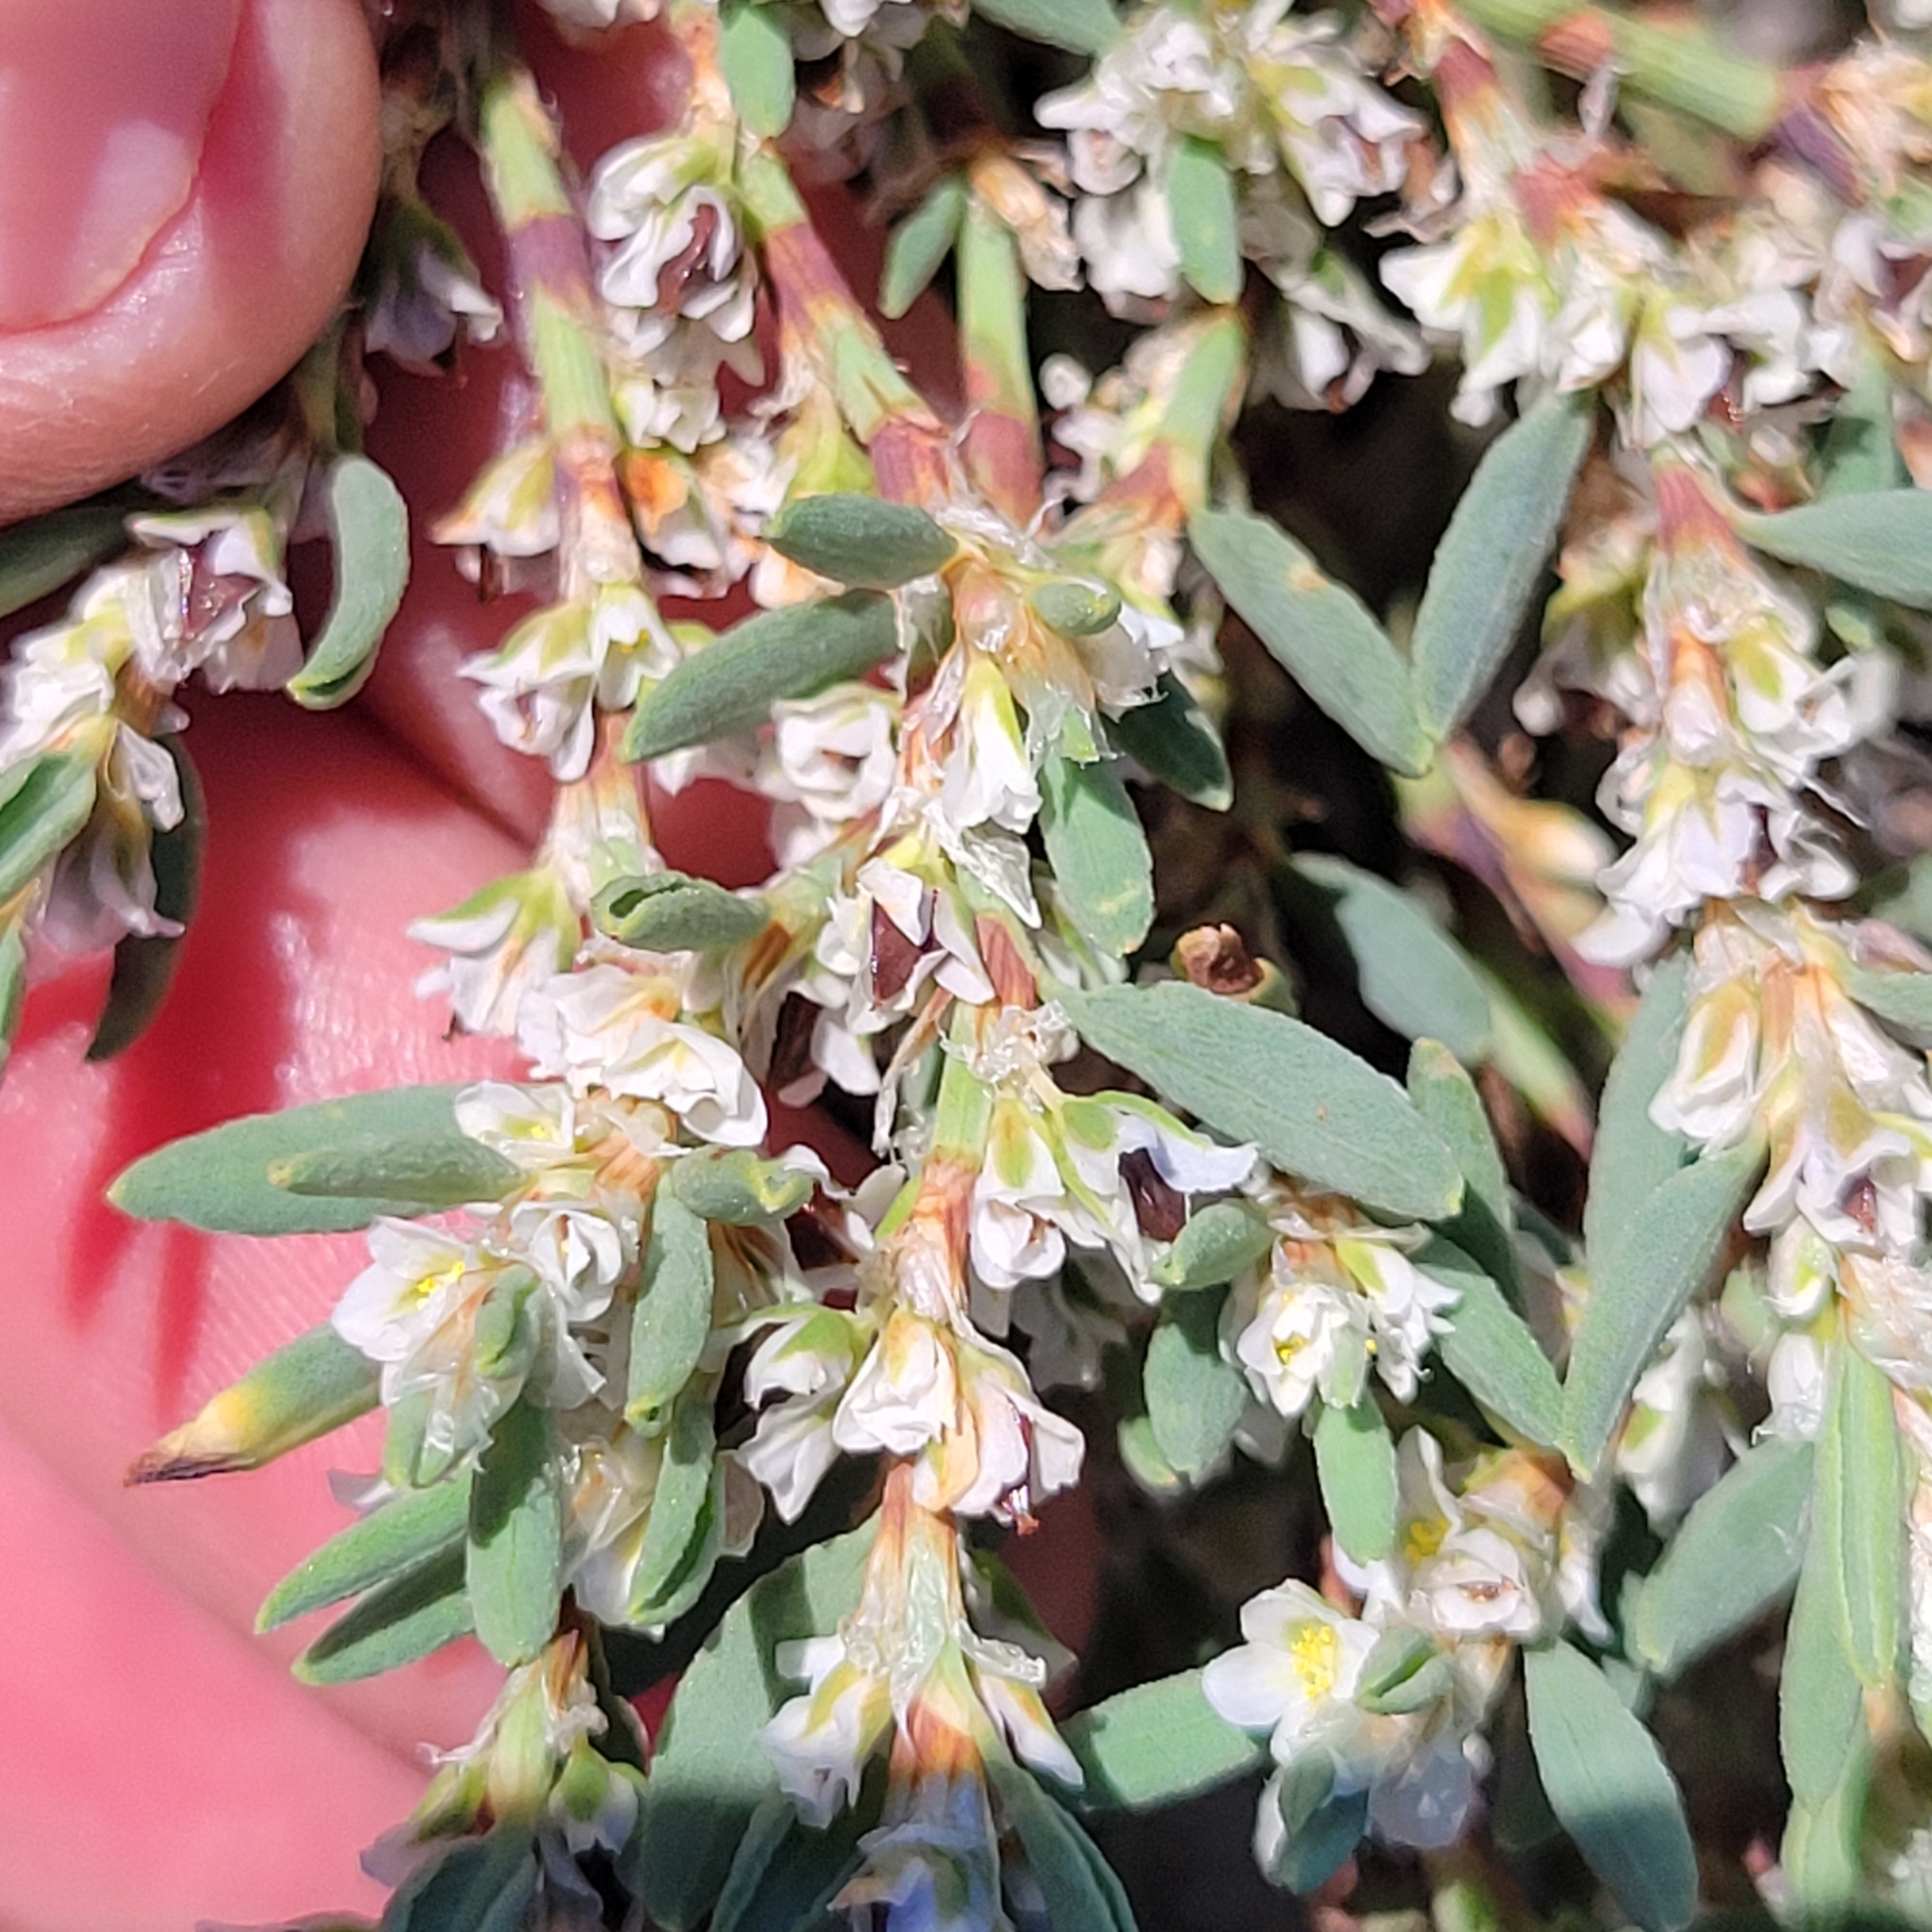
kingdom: Plantae
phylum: Tracheophyta
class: Magnoliopsida
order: Caryophyllales
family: Polygonaceae
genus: Polygonum
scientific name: Polygonum glaucum
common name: Seaside knotweed
